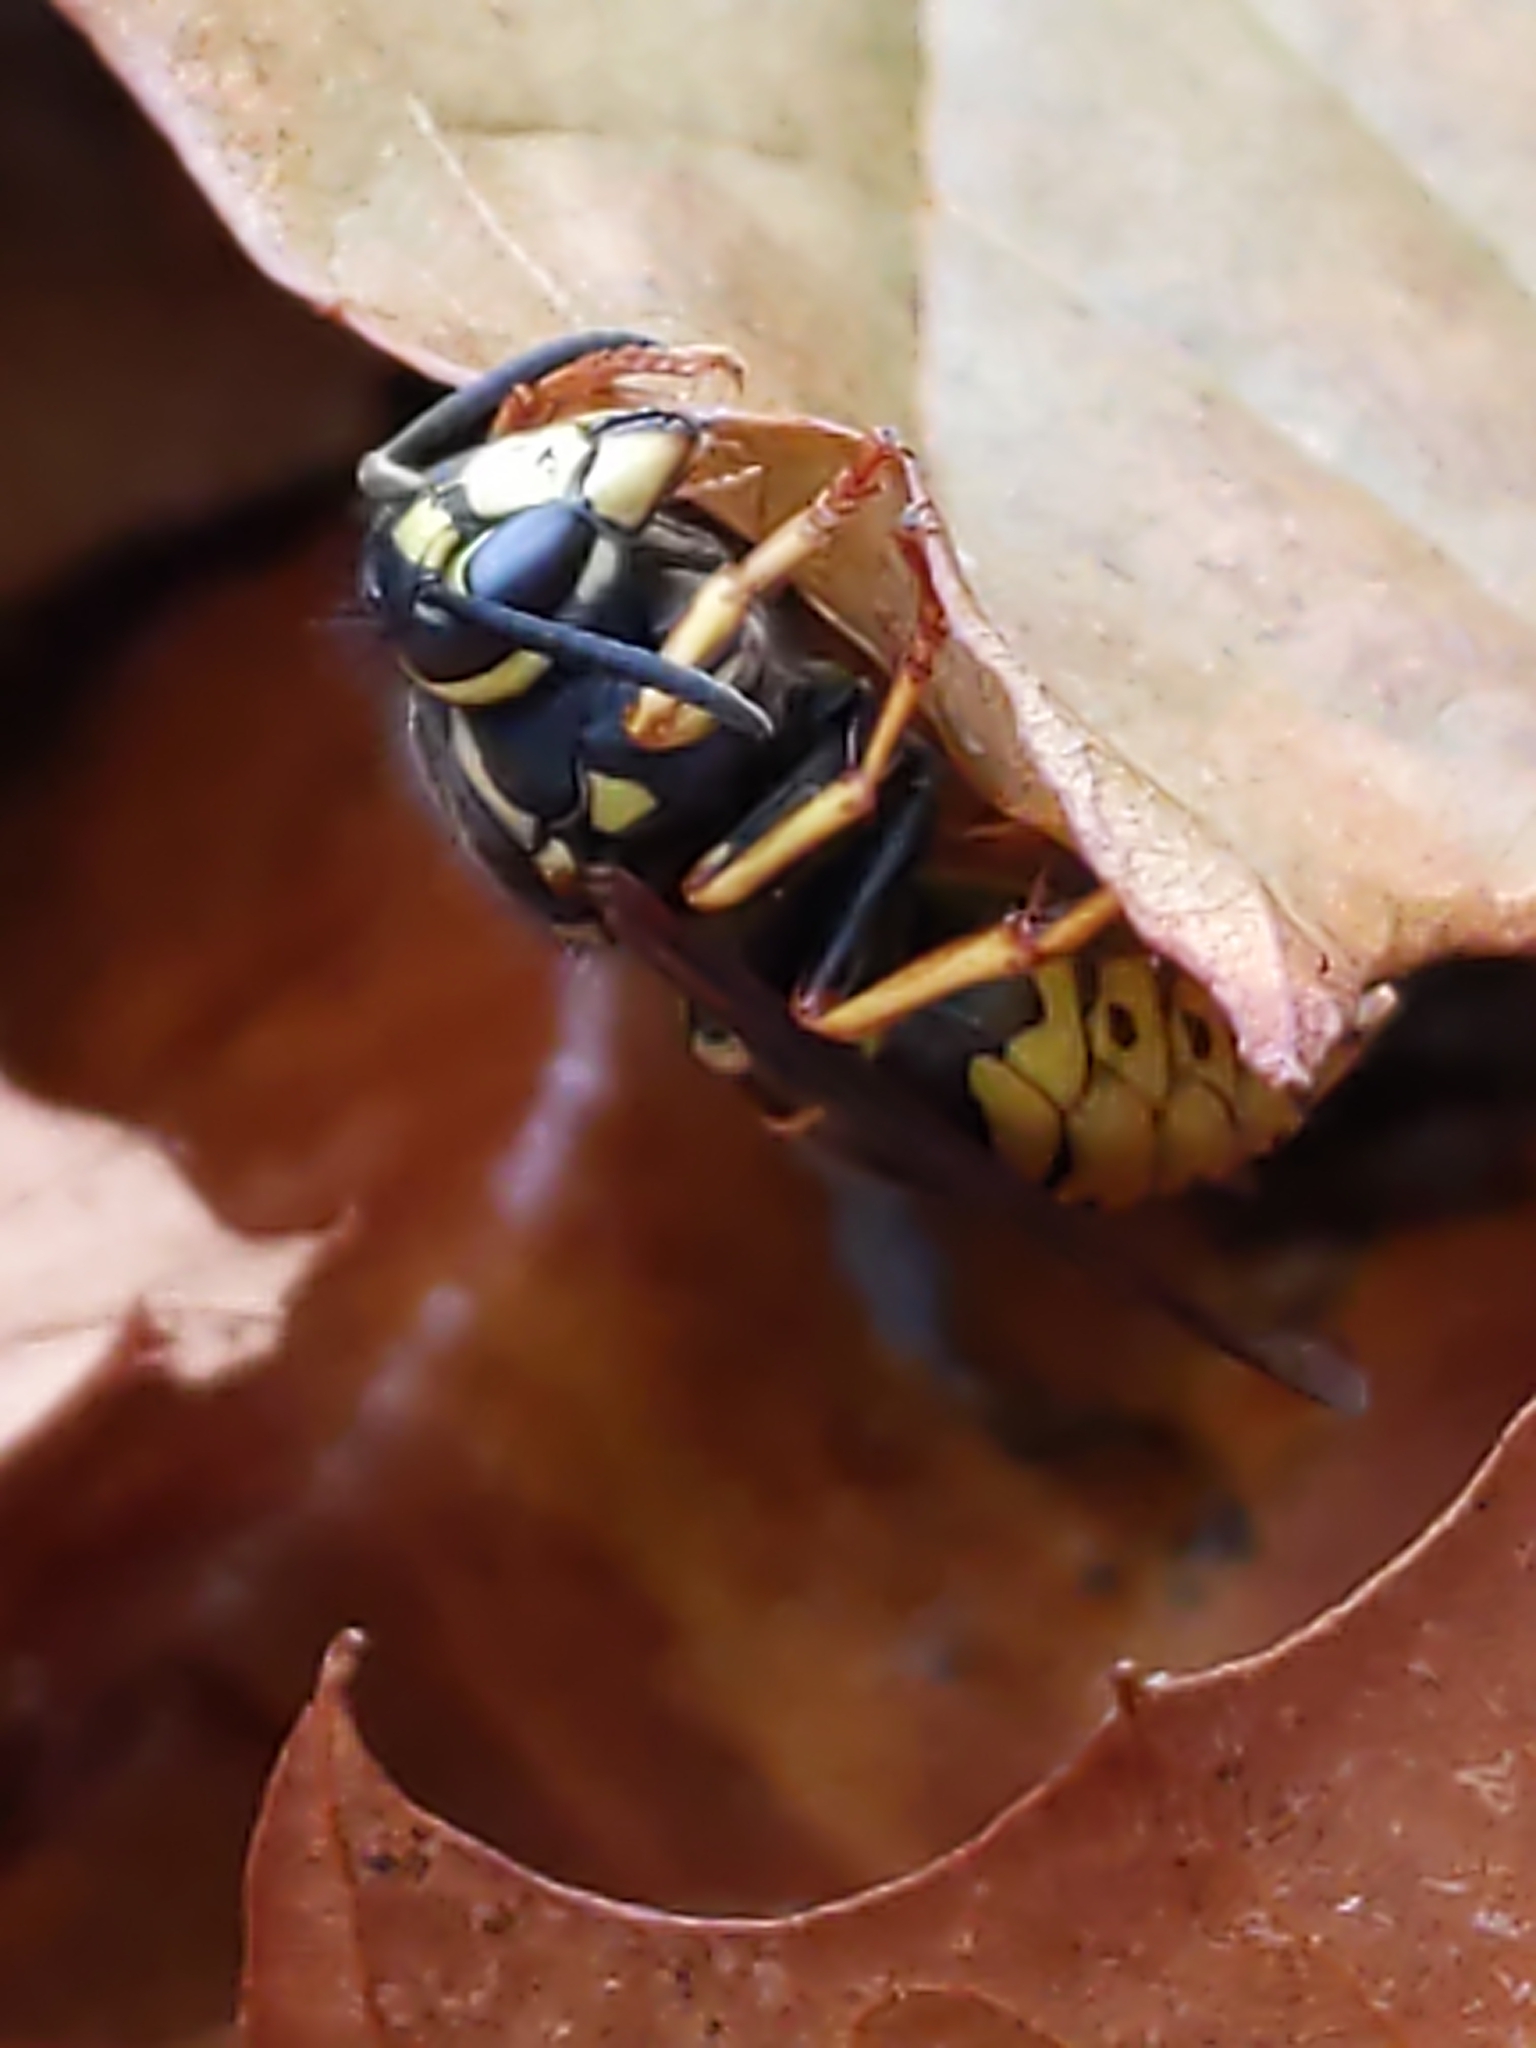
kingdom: Animalia
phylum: Arthropoda
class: Insecta
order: Hymenoptera
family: Vespidae
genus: Vespula
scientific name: Vespula vidua
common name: Widow yellowjacket
